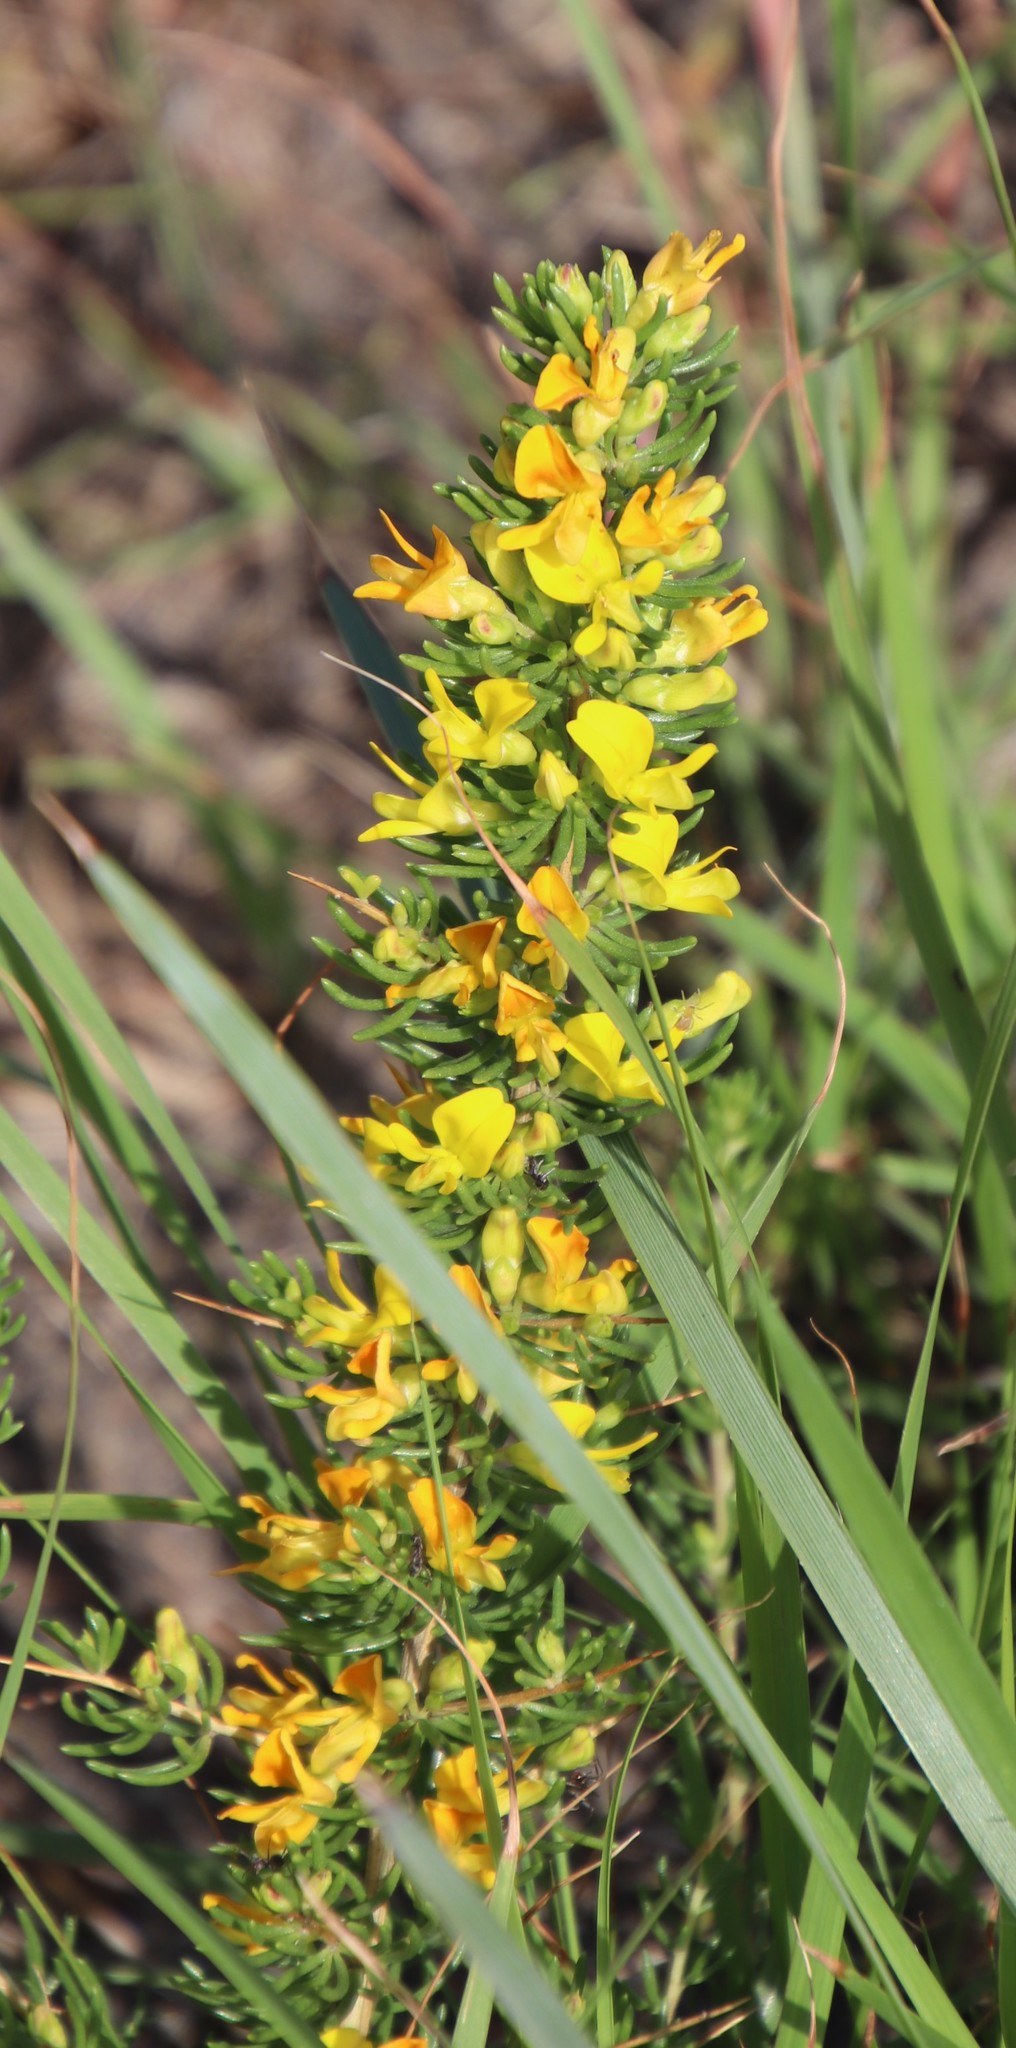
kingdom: Plantae
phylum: Tracheophyta
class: Magnoliopsida
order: Fabales
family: Fabaceae
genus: Aspalathus
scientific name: Aspalathus spinifera
